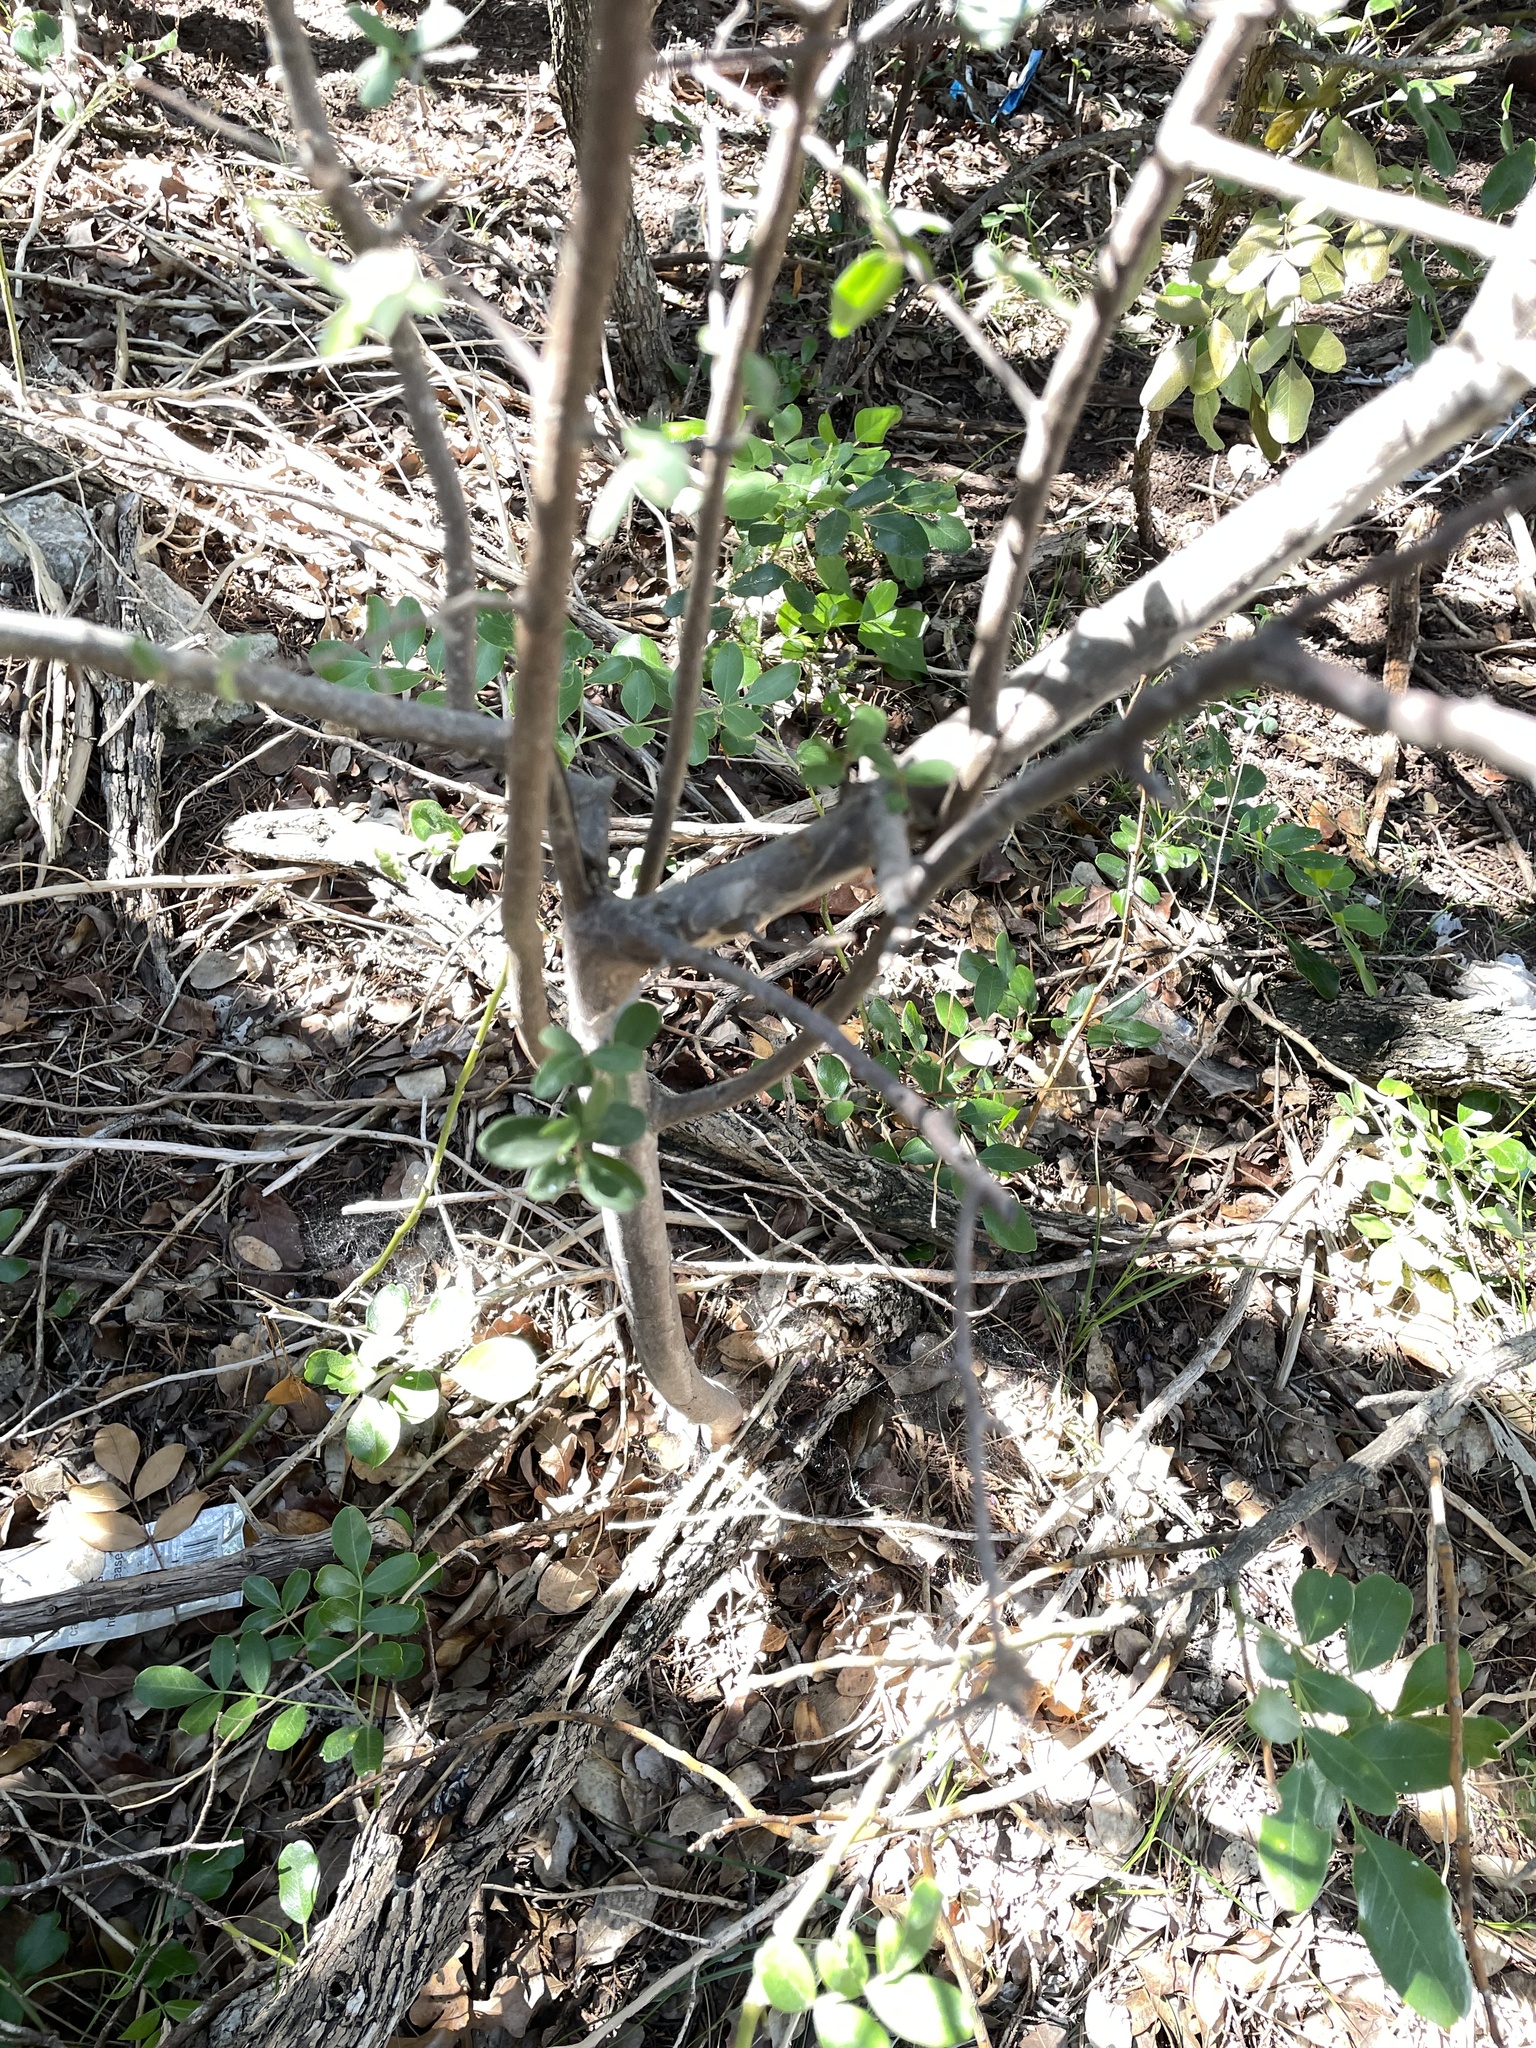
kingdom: Plantae
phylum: Tracheophyta
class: Magnoliopsida
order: Ericales
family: Ebenaceae
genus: Diospyros
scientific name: Diospyros texana
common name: Texas persimmon
